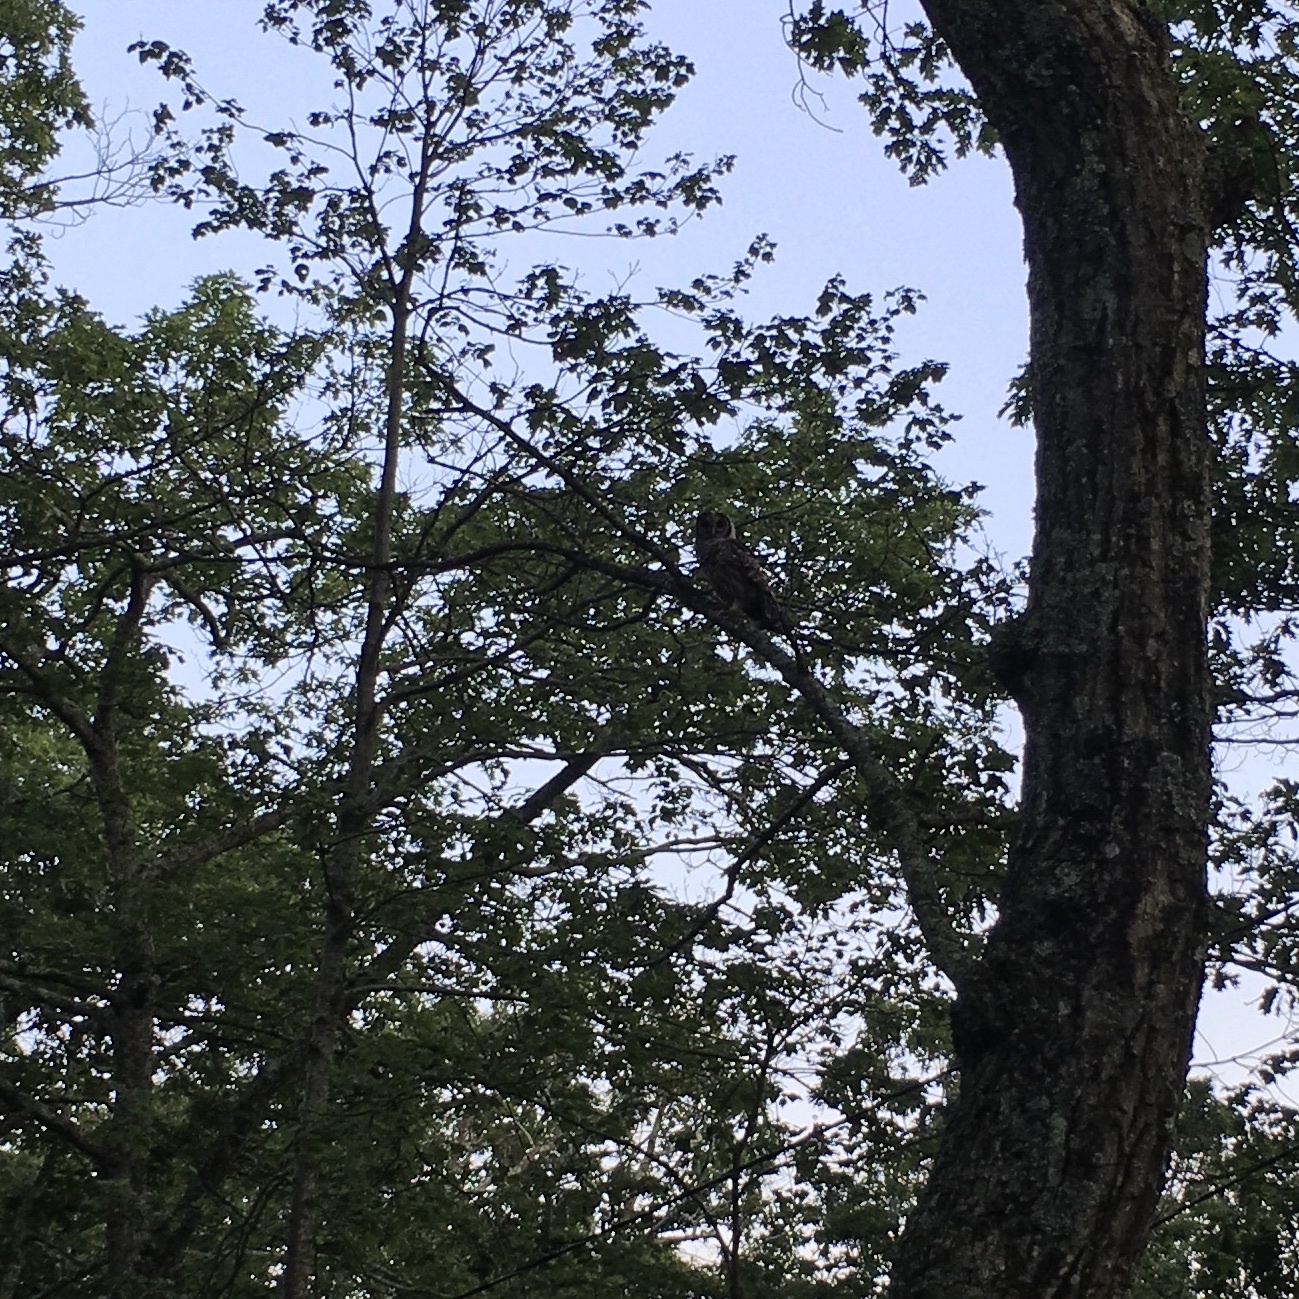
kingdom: Animalia
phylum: Chordata
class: Aves
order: Strigiformes
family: Strigidae
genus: Strix
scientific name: Strix varia
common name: Barred owl
